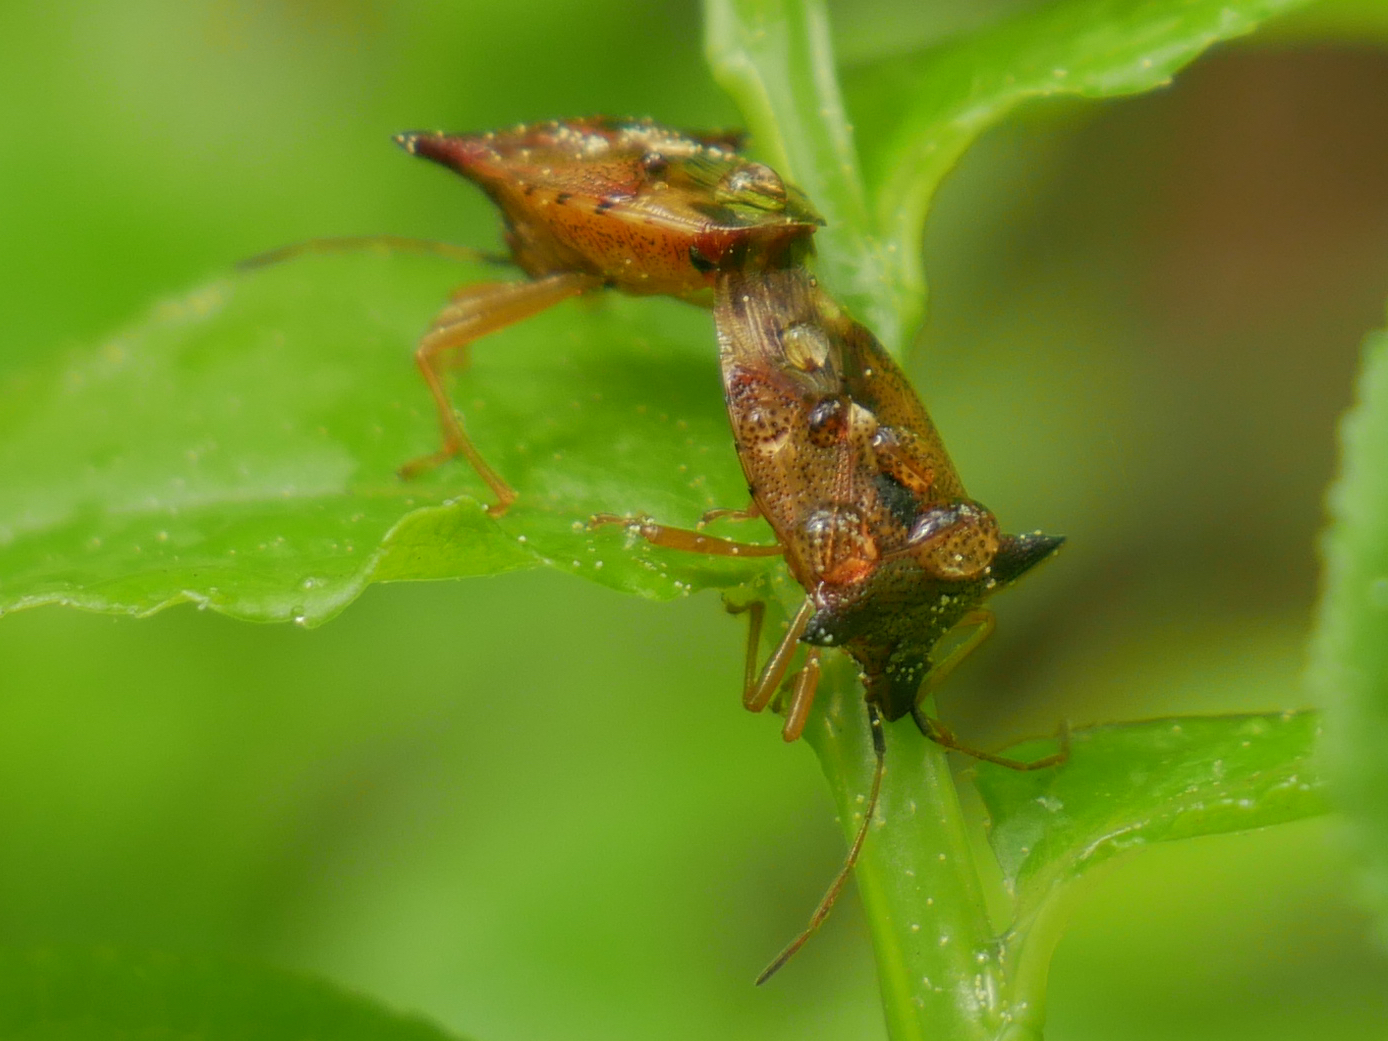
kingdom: Animalia
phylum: Arthropoda
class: Insecta
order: Hemiptera
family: Acanthosomatidae
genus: Elasmucha
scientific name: Elasmucha ferrugata
